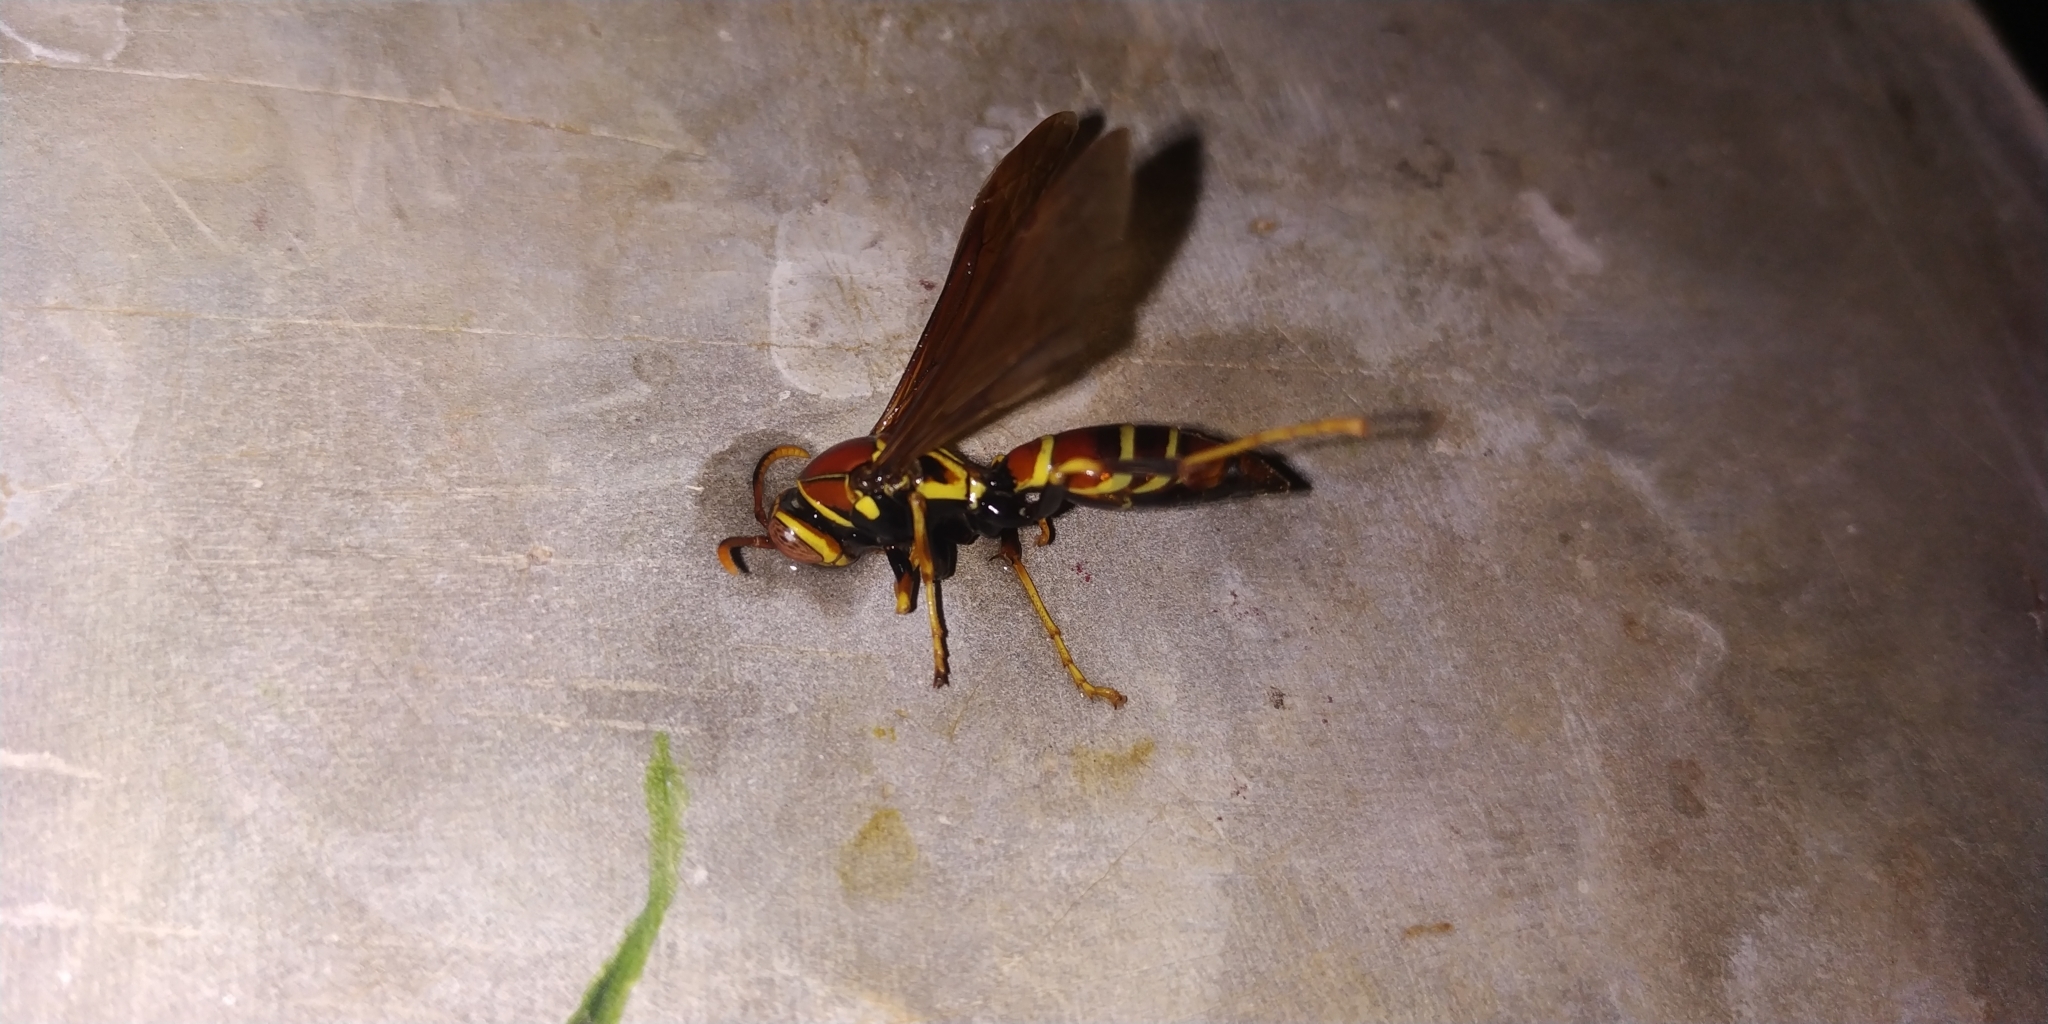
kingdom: Animalia
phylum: Arthropoda
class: Insecta
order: Hymenoptera
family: Eumenidae
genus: Polistes
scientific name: Polistes instabilis
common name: Unstable paper wasp
